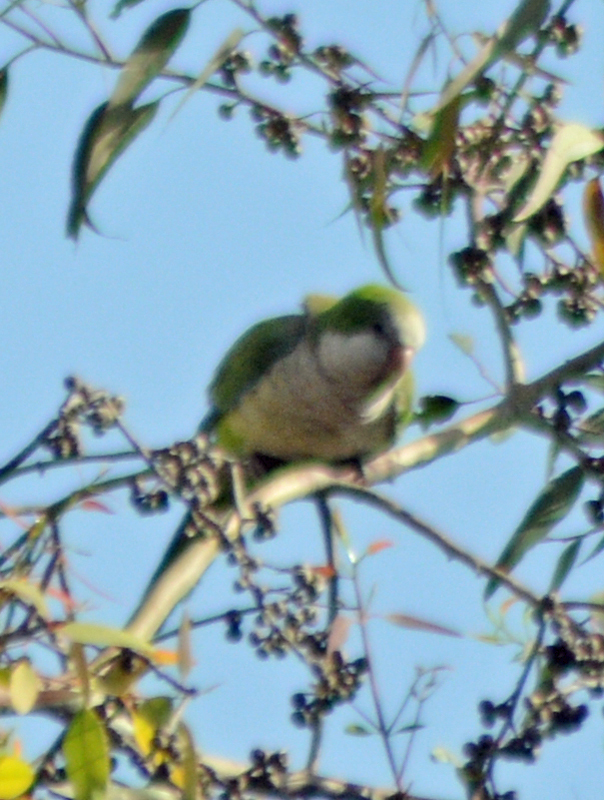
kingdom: Animalia
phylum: Chordata
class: Aves
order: Psittaciformes
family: Psittacidae
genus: Myiopsitta
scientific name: Myiopsitta monachus
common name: Monk parakeet
